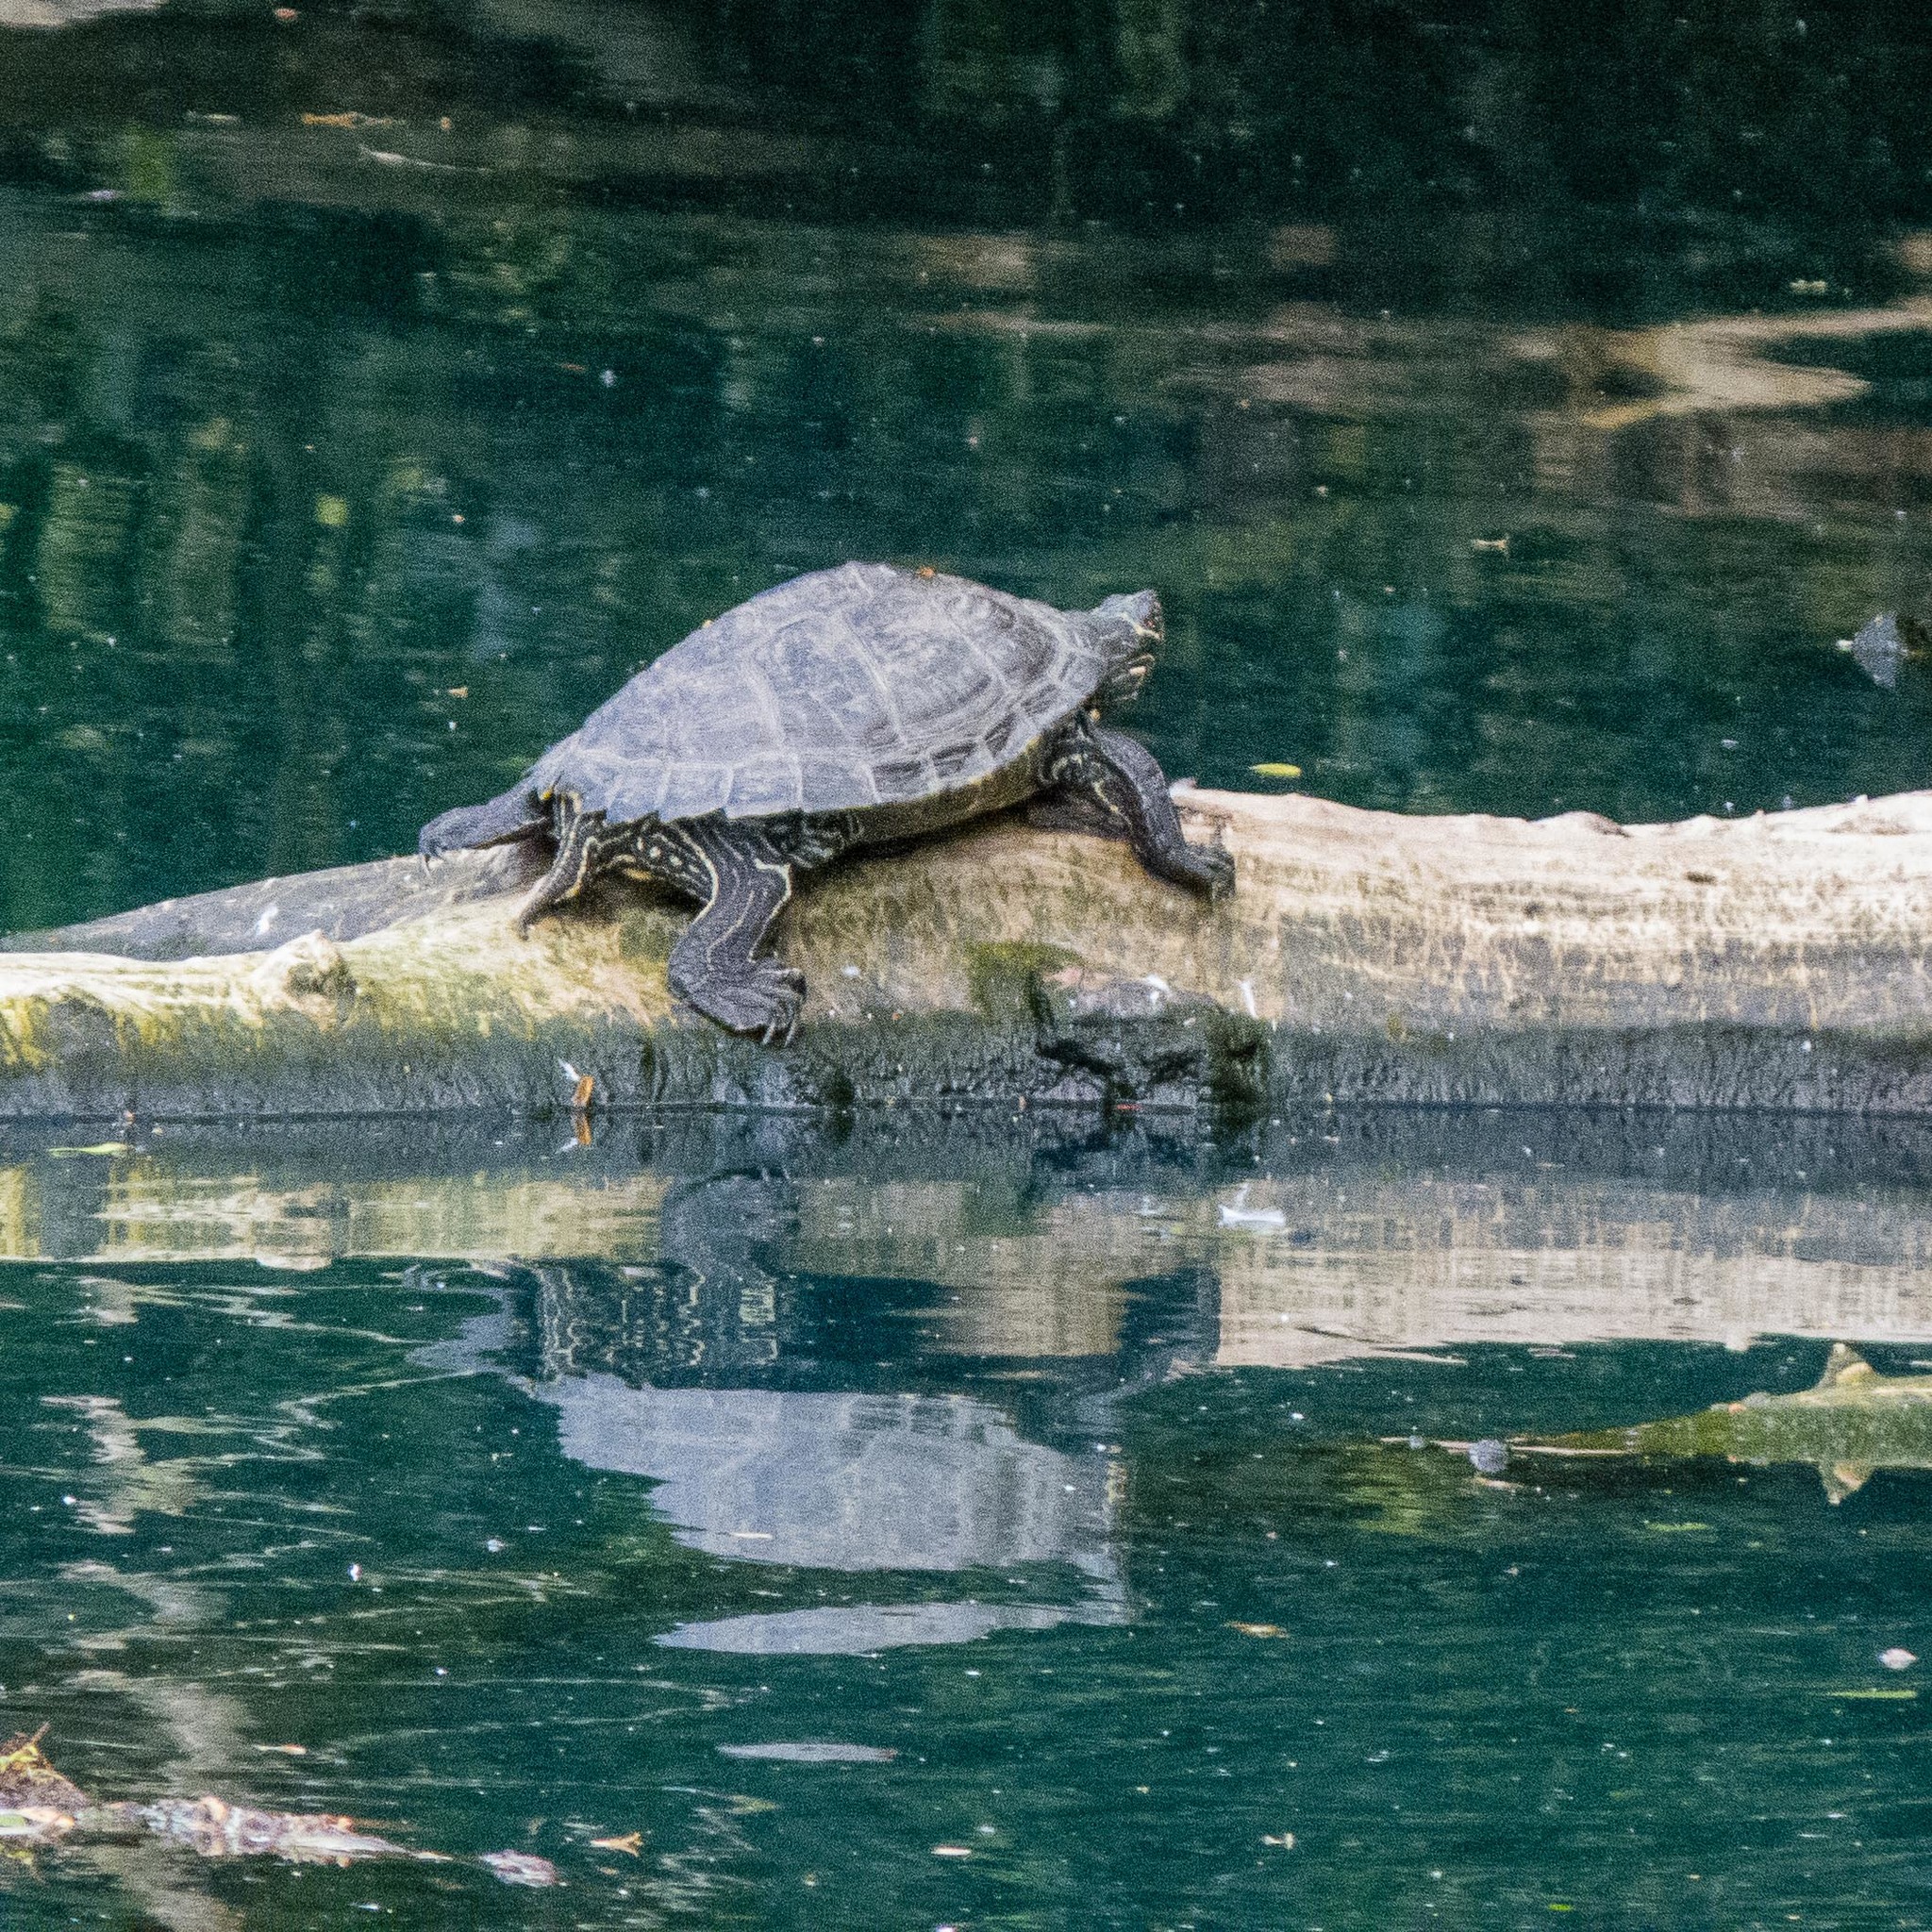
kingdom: Animalia
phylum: Chordata
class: Testudines
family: Emydidae
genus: Trachemys
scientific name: Trachemys scripta
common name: Slider
